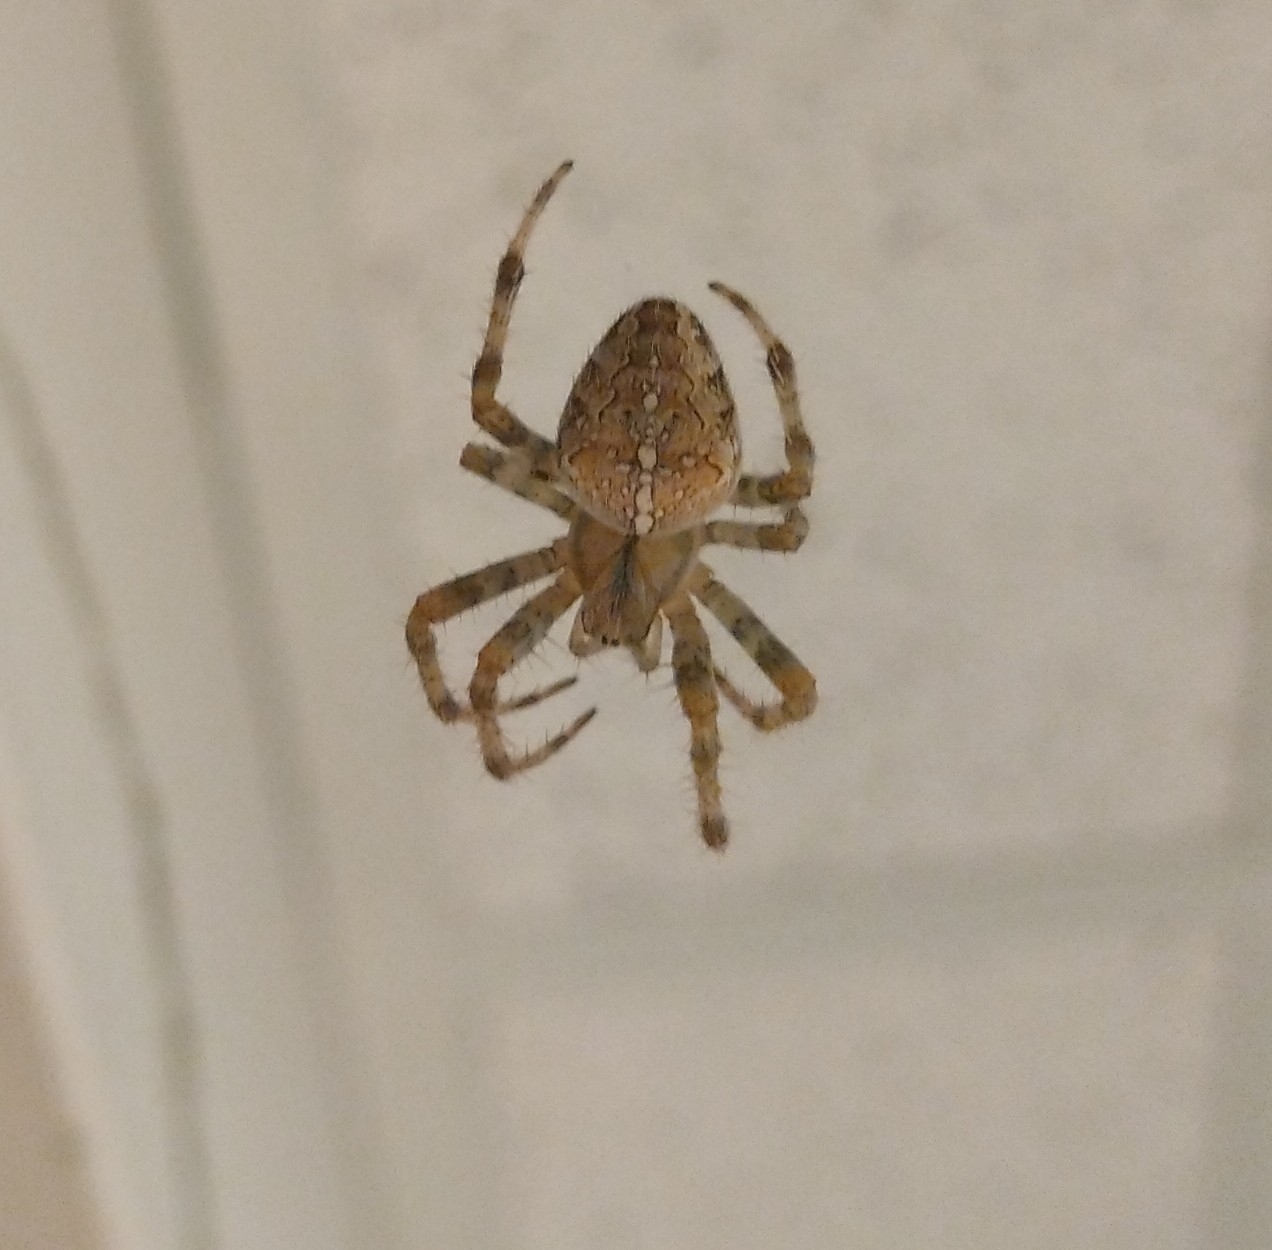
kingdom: Animalia
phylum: Arthropoda
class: Arachnida
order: Araneae
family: Araneidae
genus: Araneus
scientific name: Araneus diadematus
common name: Cross orbweaver
